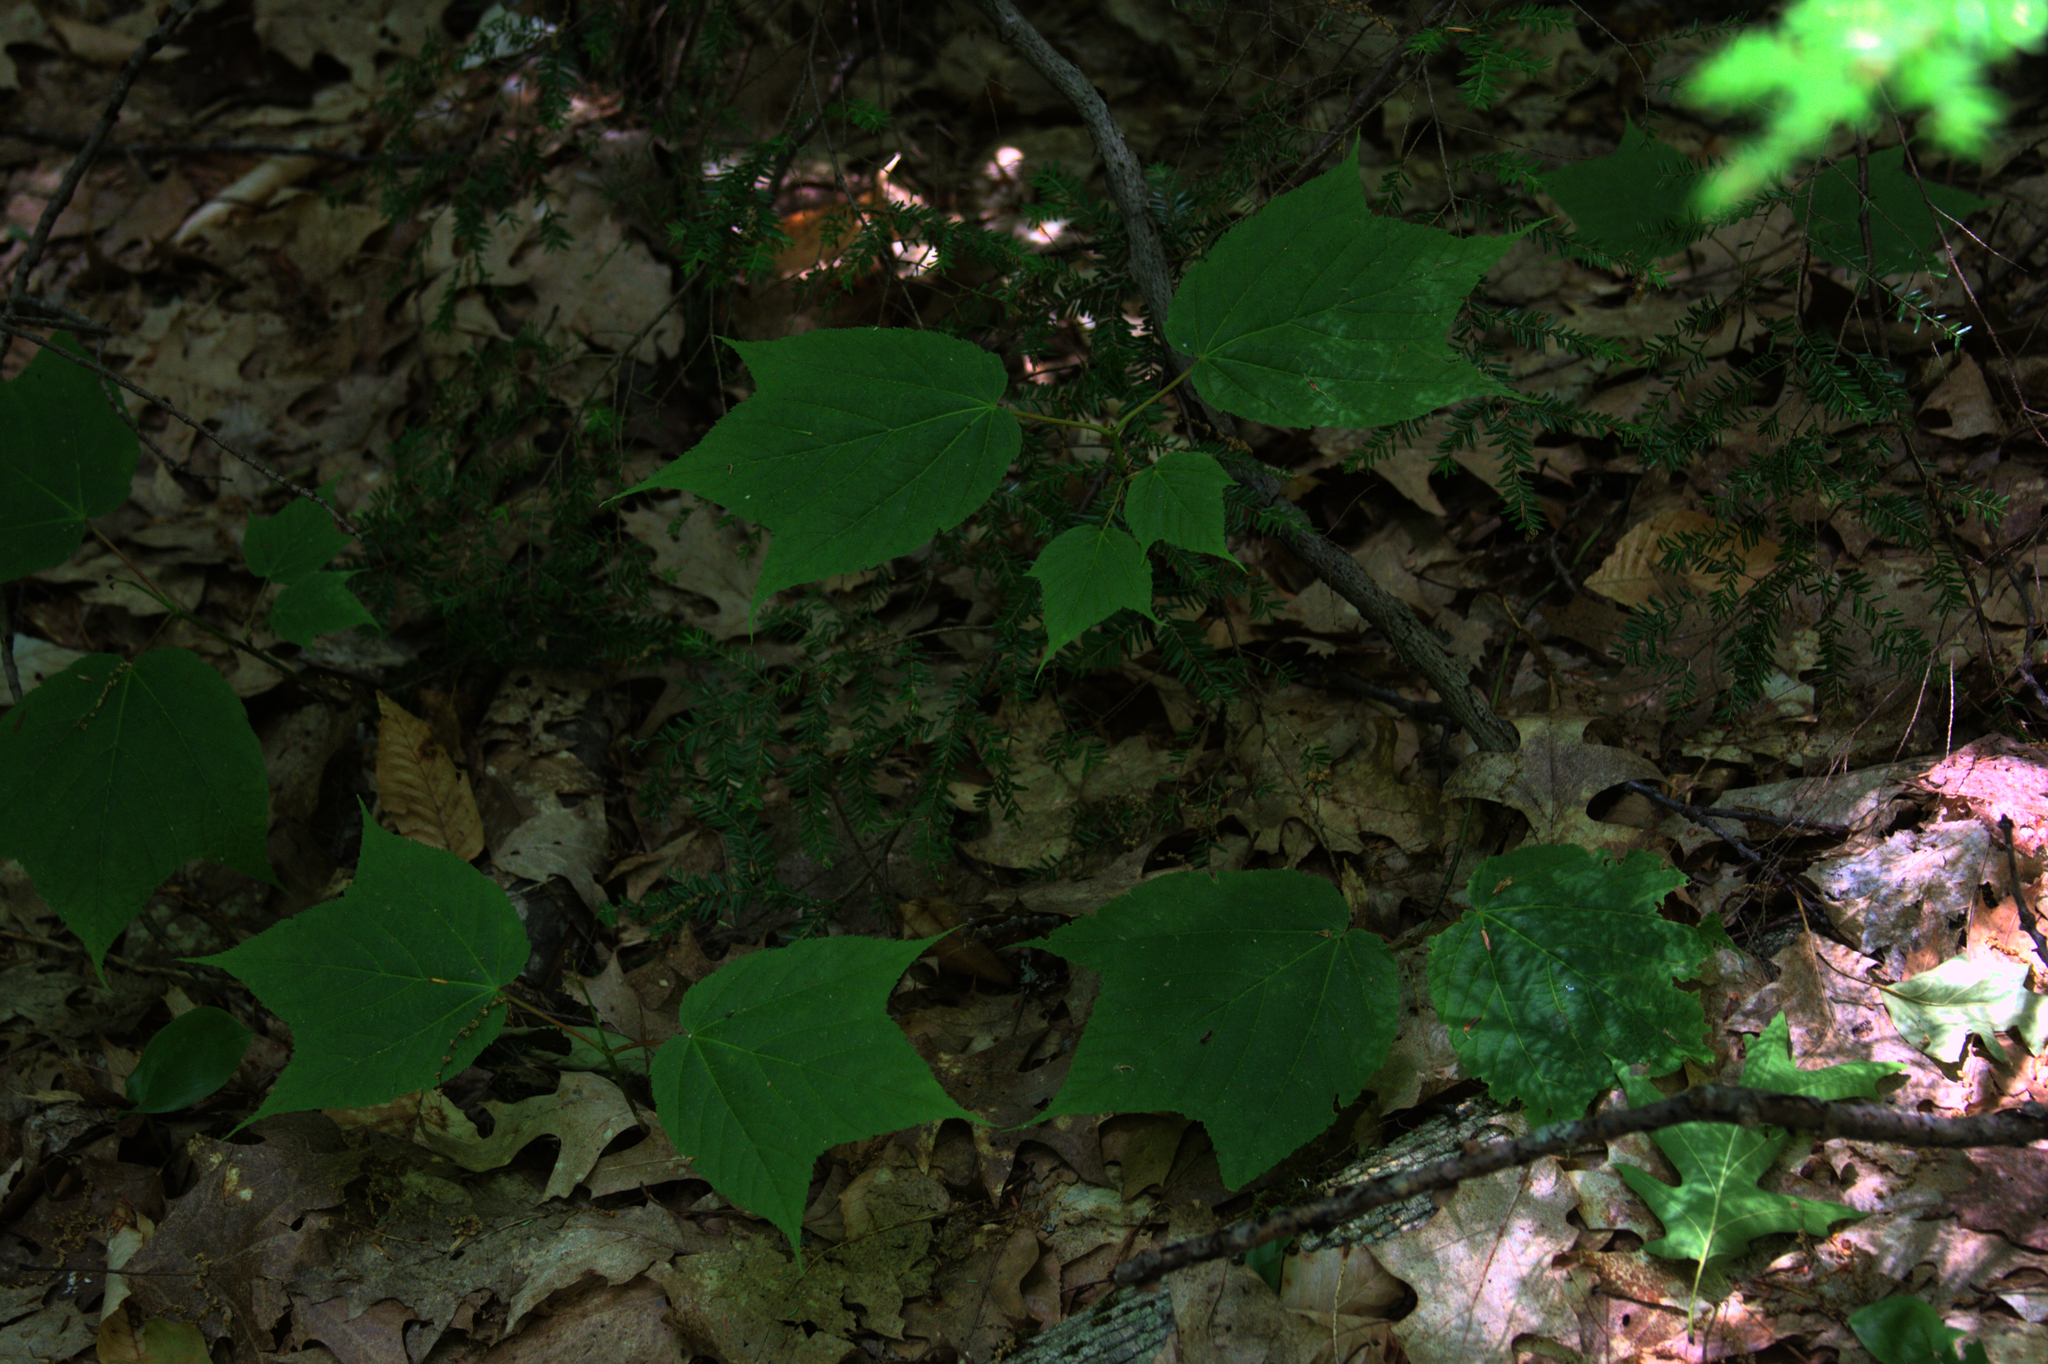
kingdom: Plantae
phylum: Tracheophyta
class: Pinopsida
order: Pinales
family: Pinaceae
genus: Tsuga
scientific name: Tsuga canadensis
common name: Eastern hemlock
